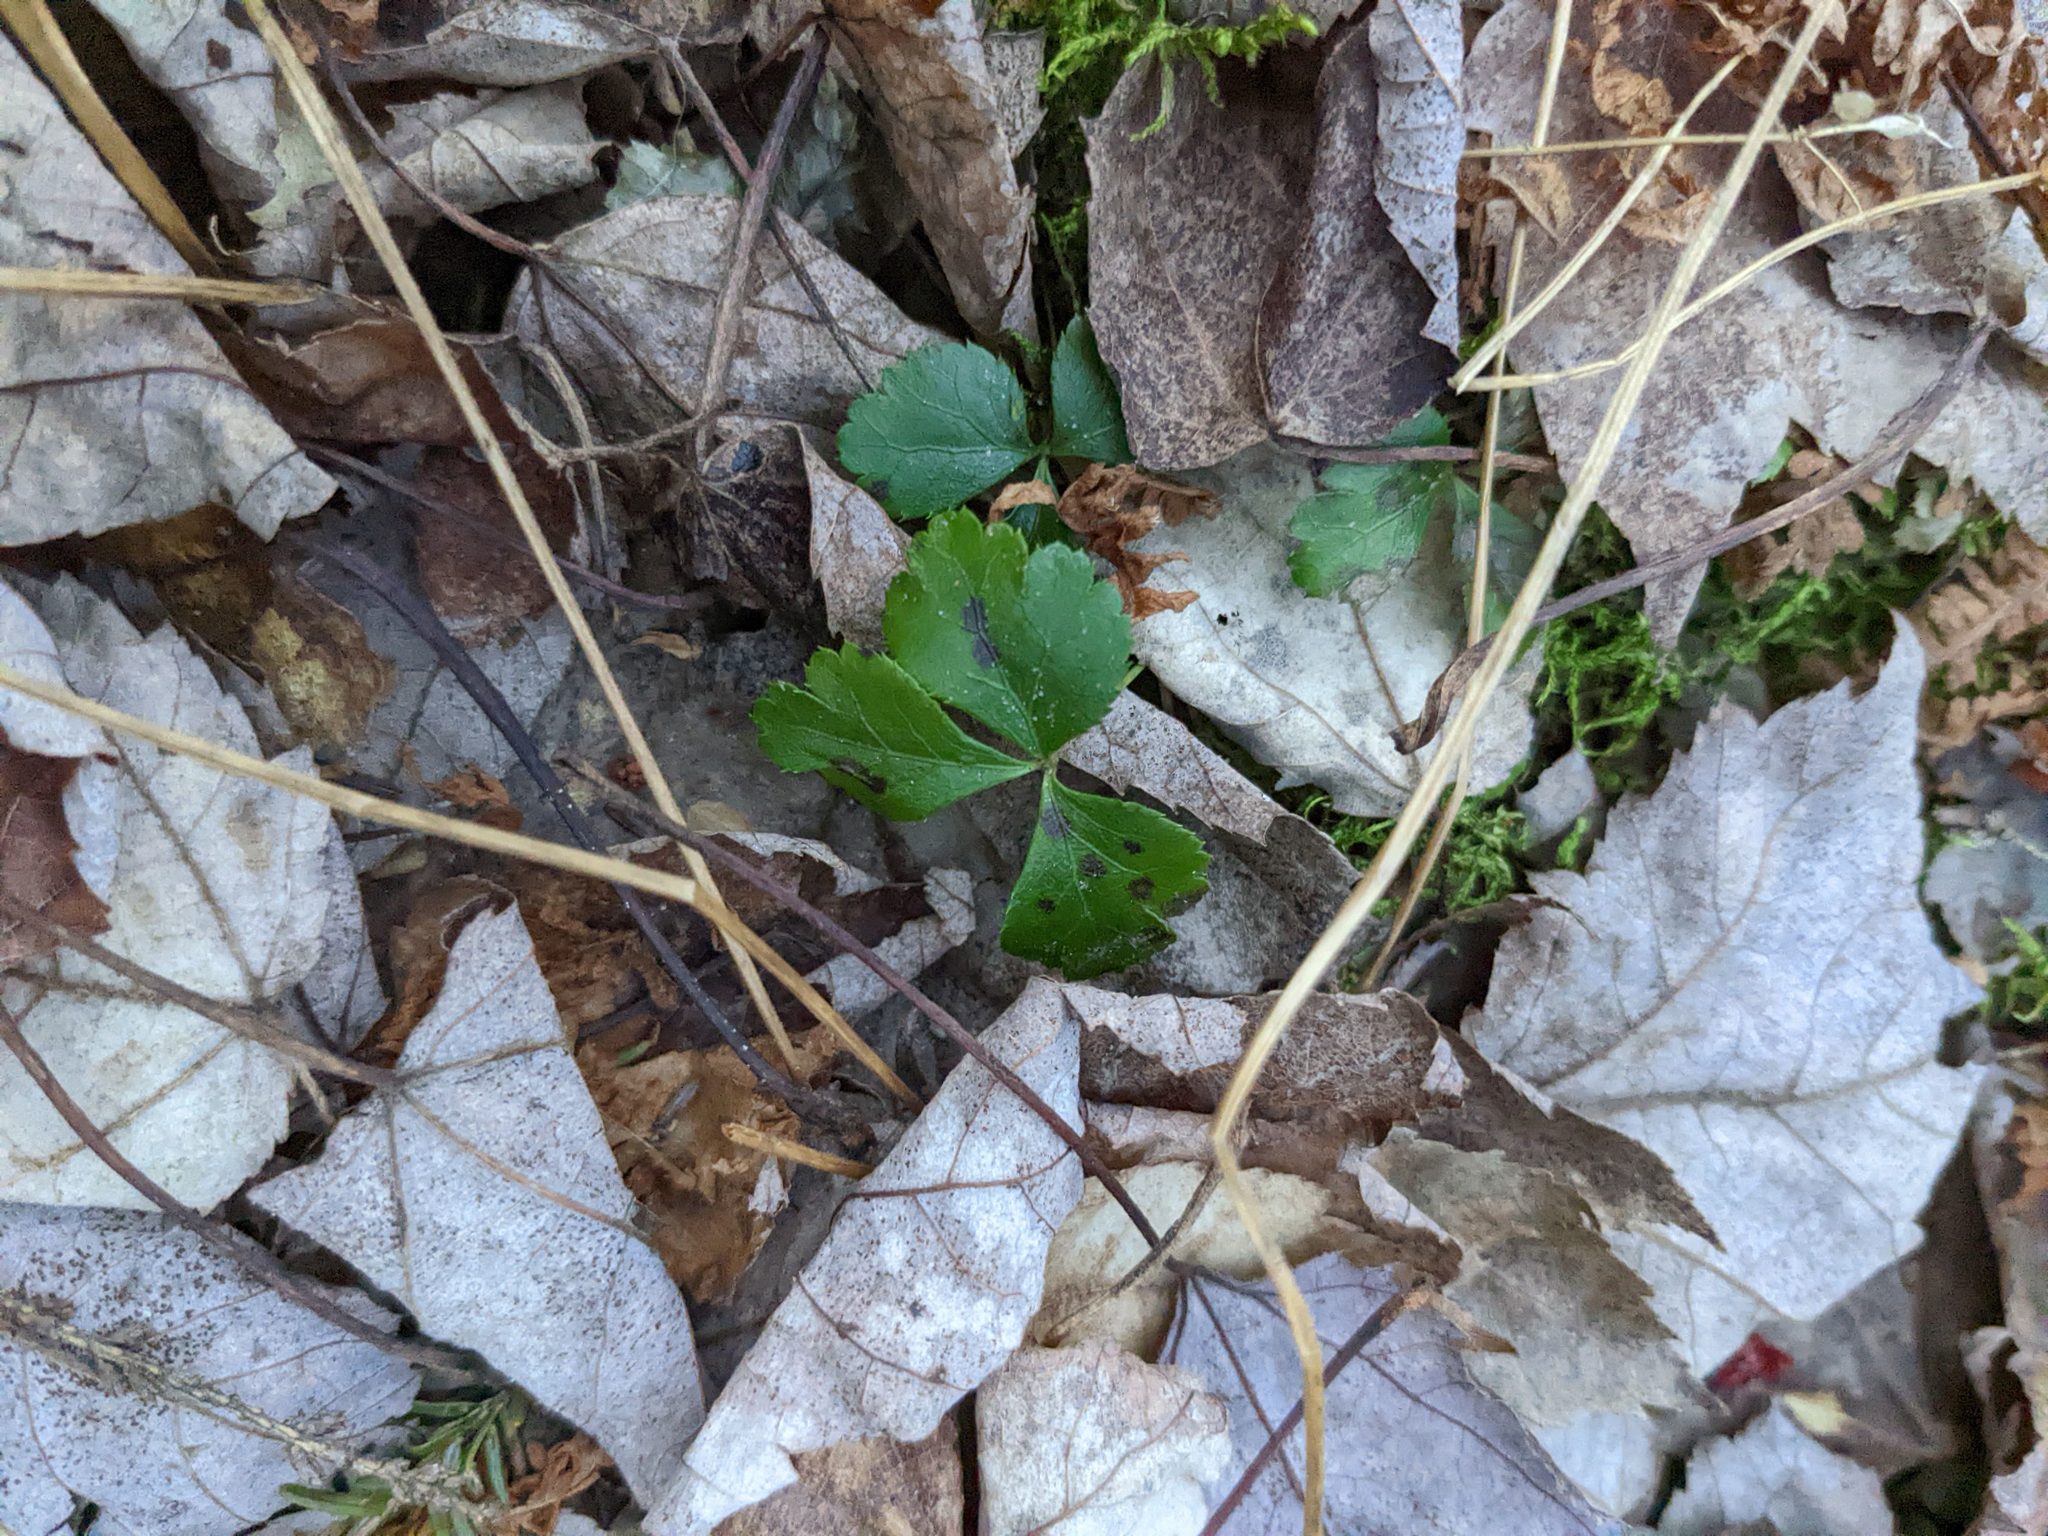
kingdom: Plantae
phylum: Tracheophyta
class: Magnoliopsida
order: Ranunculales
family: Ranunculaceae
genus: Coptis
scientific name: Coptis trifolia
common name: Canker-root
